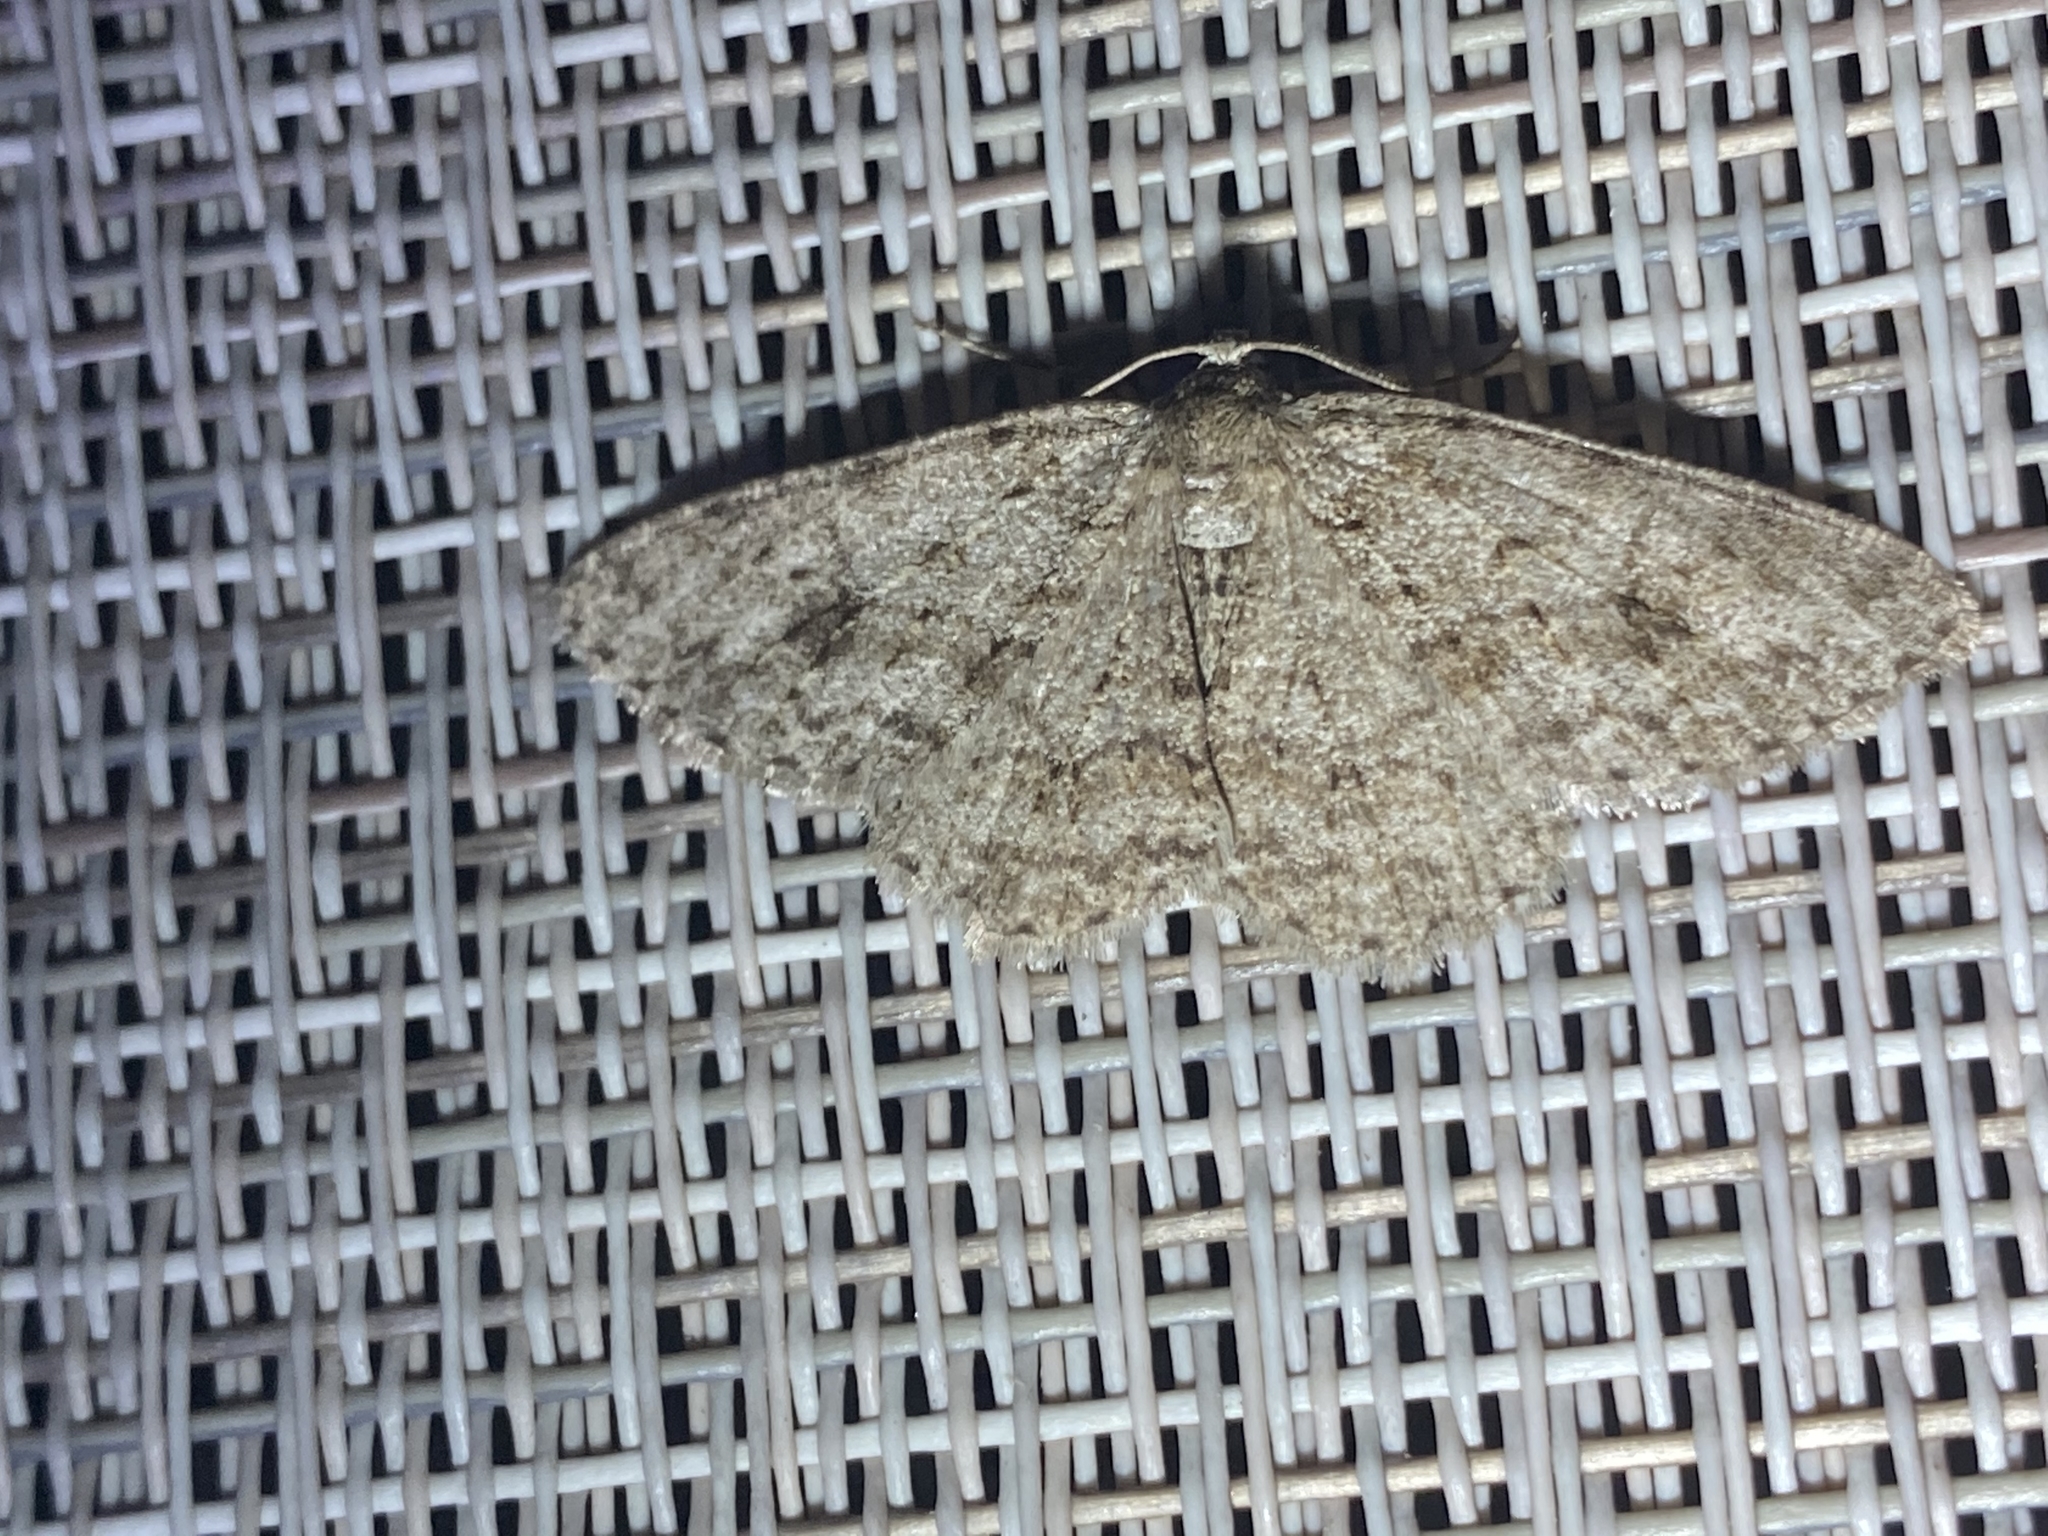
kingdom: Animalia
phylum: Arthropoda
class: Insecta
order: Lepidoptera
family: Geometridae
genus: Ectropis
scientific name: Ectropis crepuscularia
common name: Engrailed
